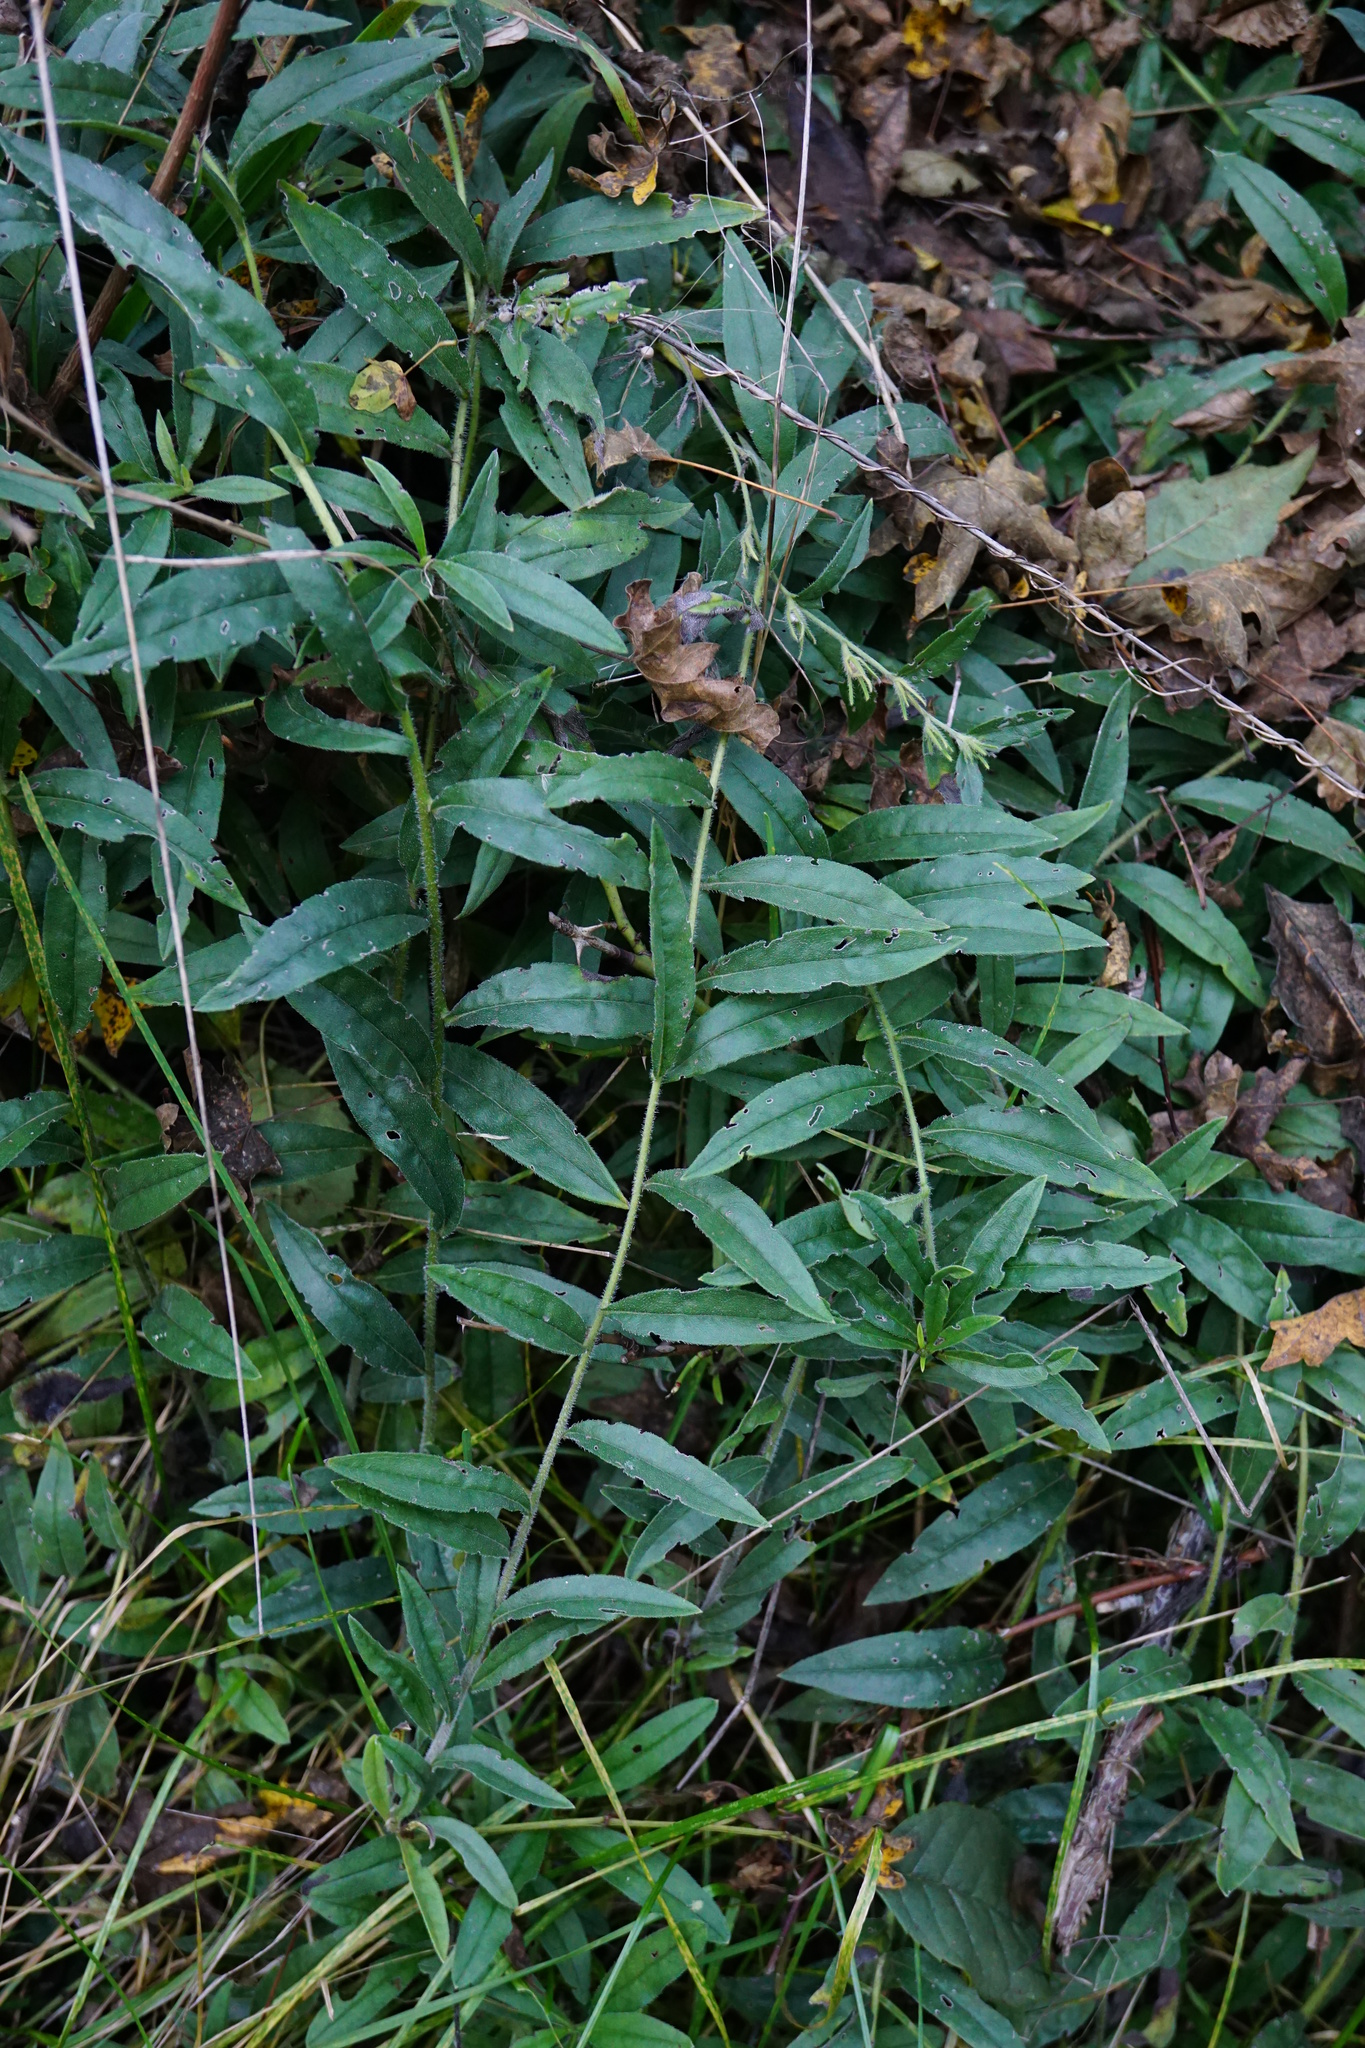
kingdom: Plantae
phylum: Tracheophyta
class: Magnoliopsida
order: Boraginales
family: Boraginaceae
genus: Aegonychon
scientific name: Aegonychon purpurocaeruleum
